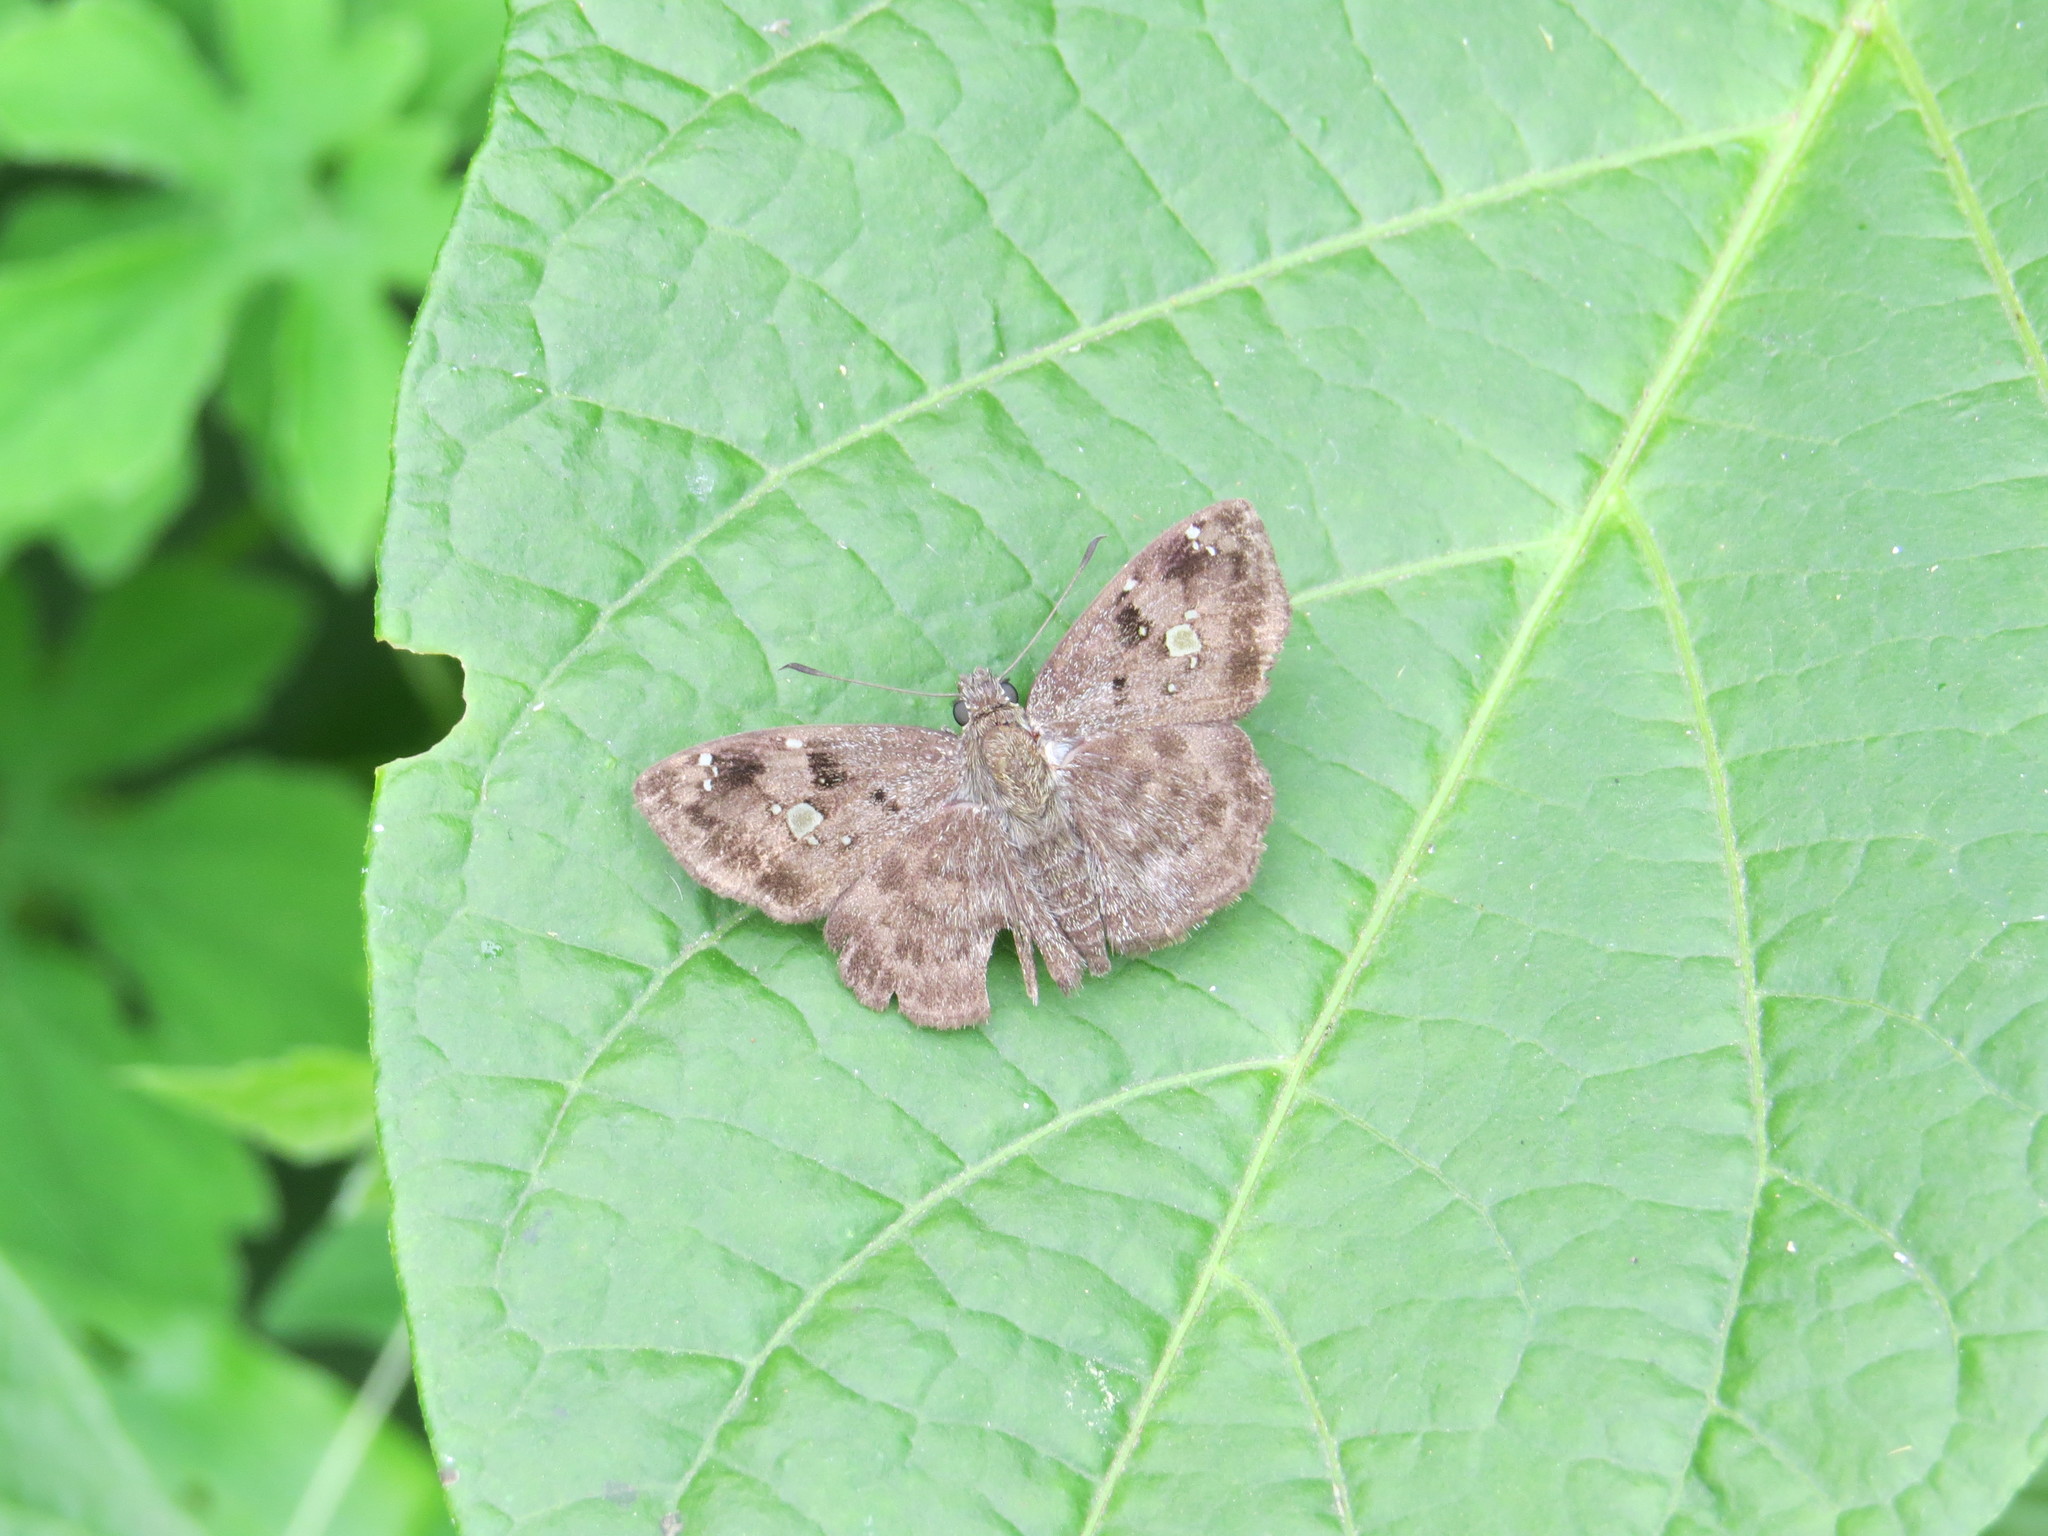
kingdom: Animalia
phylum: Arthropoda
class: Insecta
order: Lepidoptera
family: Hesperiidae
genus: Sarangesa
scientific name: Sarangesa maculata
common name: Big-spot elfin
